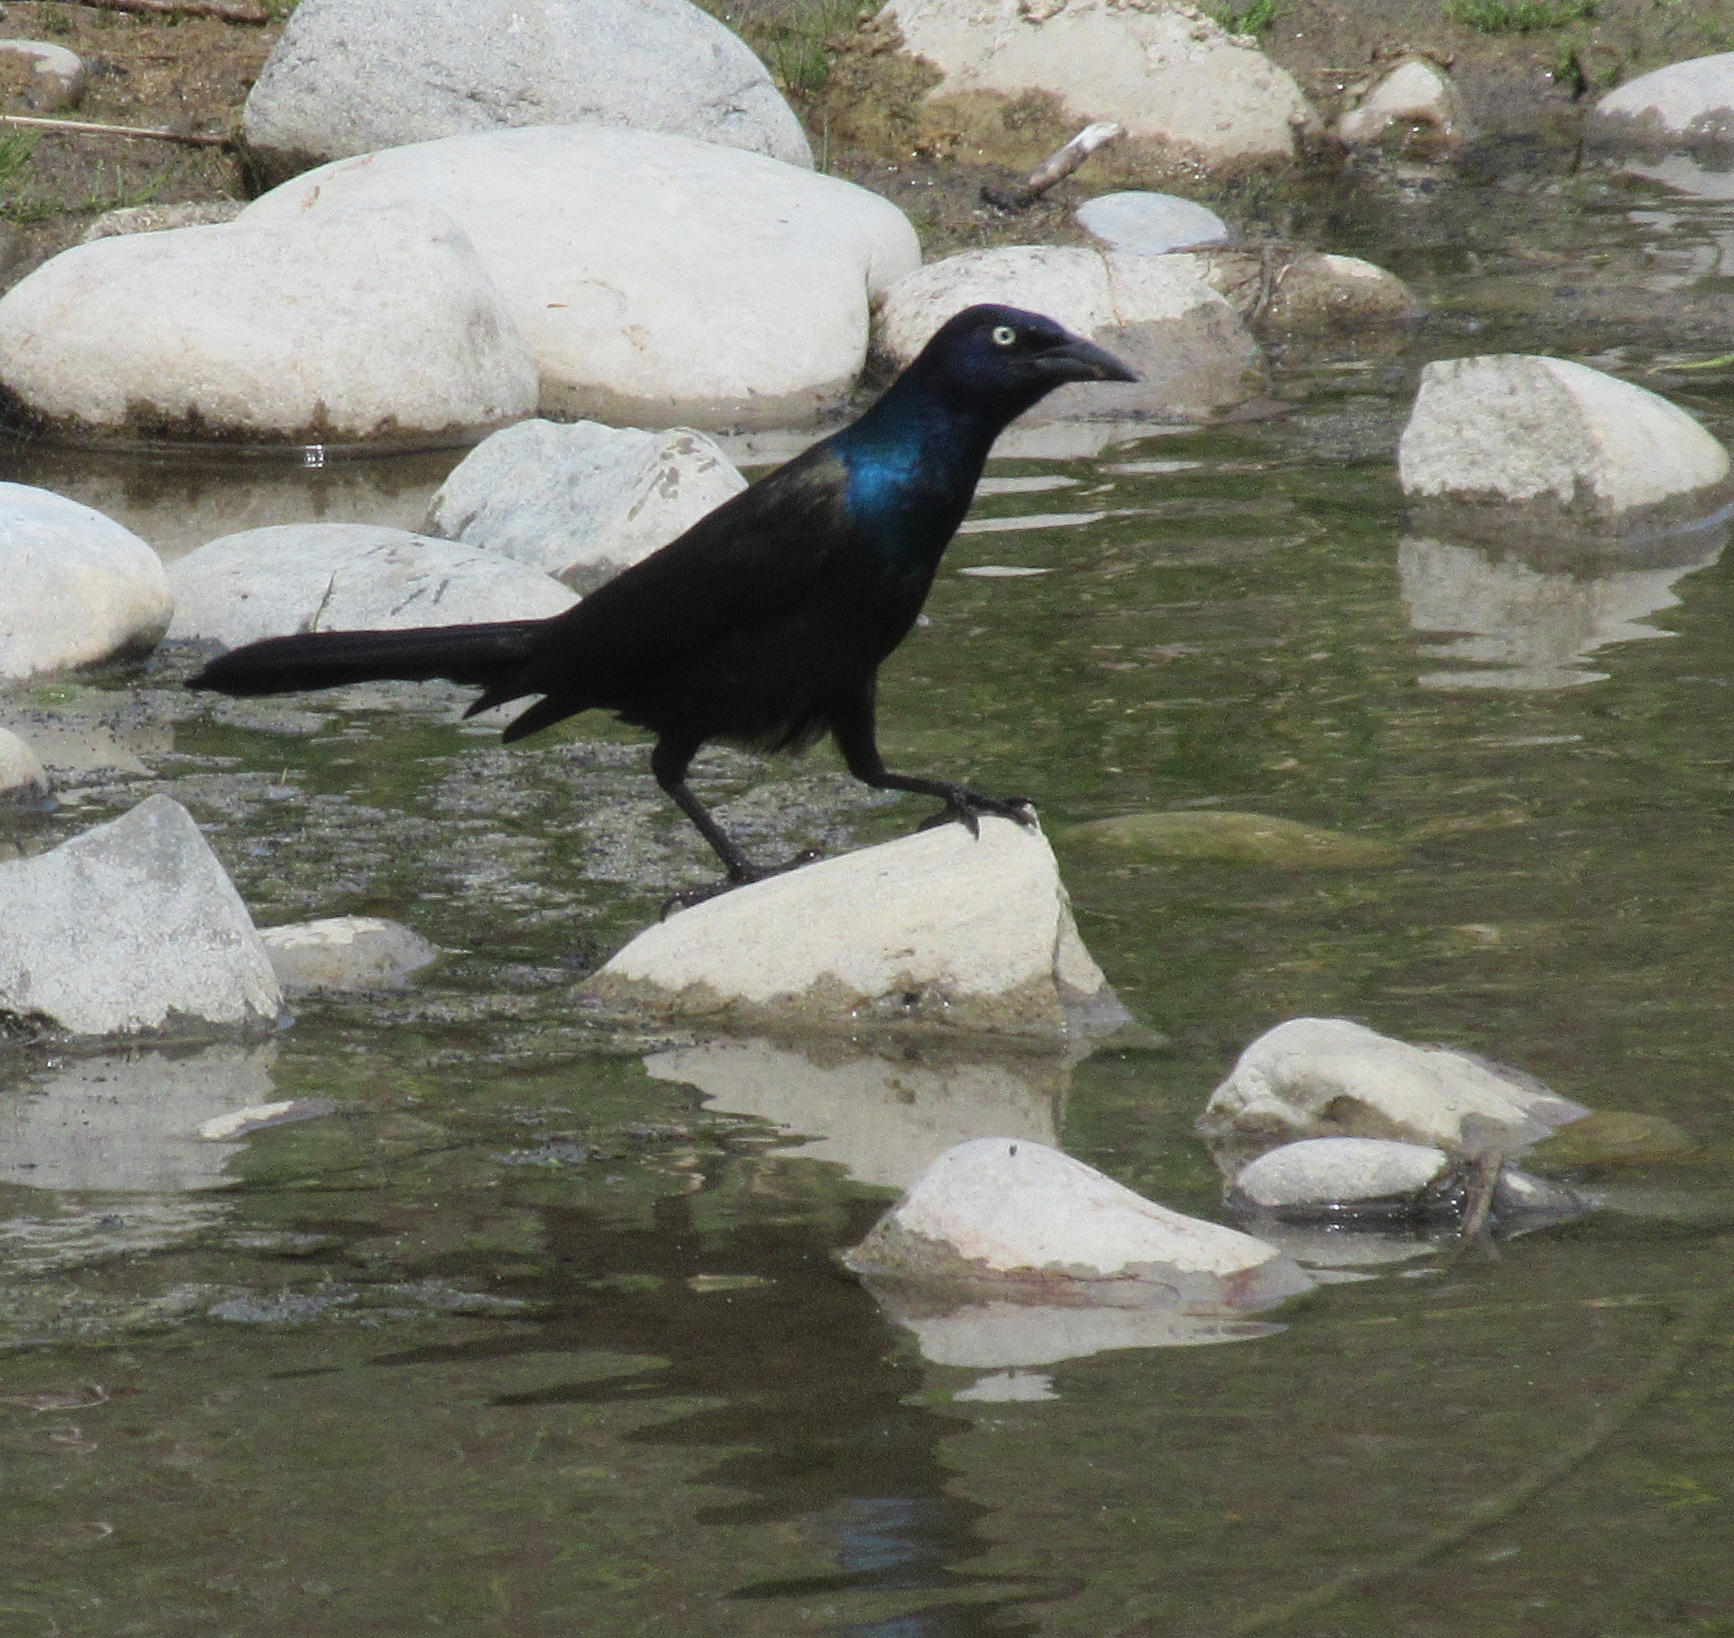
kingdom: Animalia
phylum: Chordata
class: Aves
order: Passeriformes
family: Icteridae
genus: Quiscalus
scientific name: Quiscalus quiscula
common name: Common grackle
